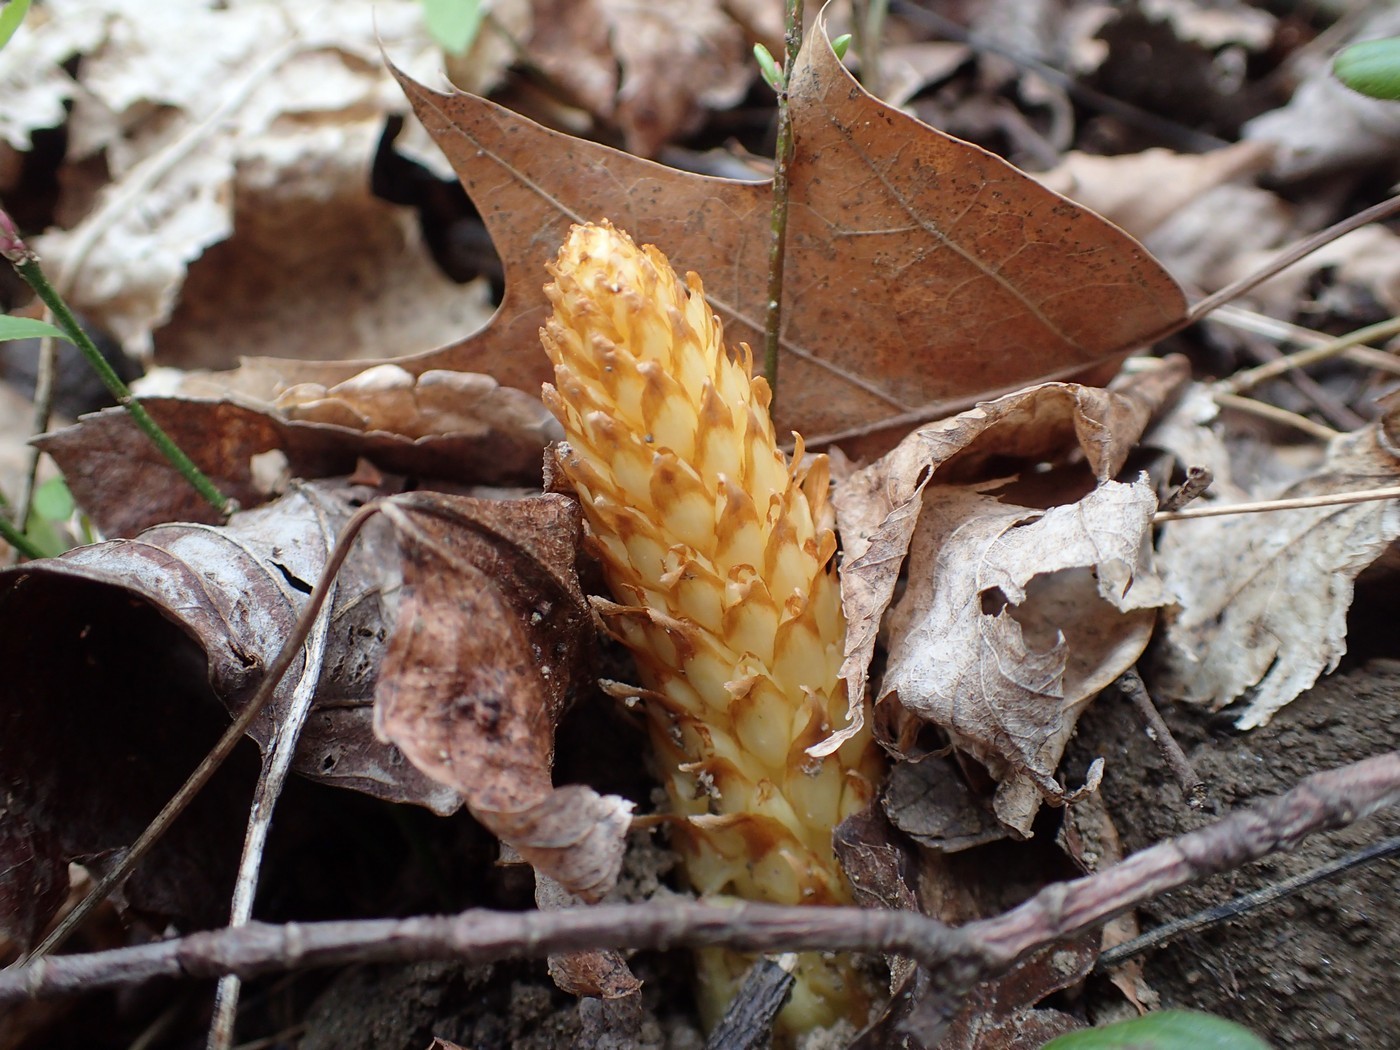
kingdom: Plantae
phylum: Tracheophyta
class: Magnoliopsida
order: Lamiales
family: Orobanchaceae
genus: Conopholis
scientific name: Conopholis americana
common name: American cancer-root
